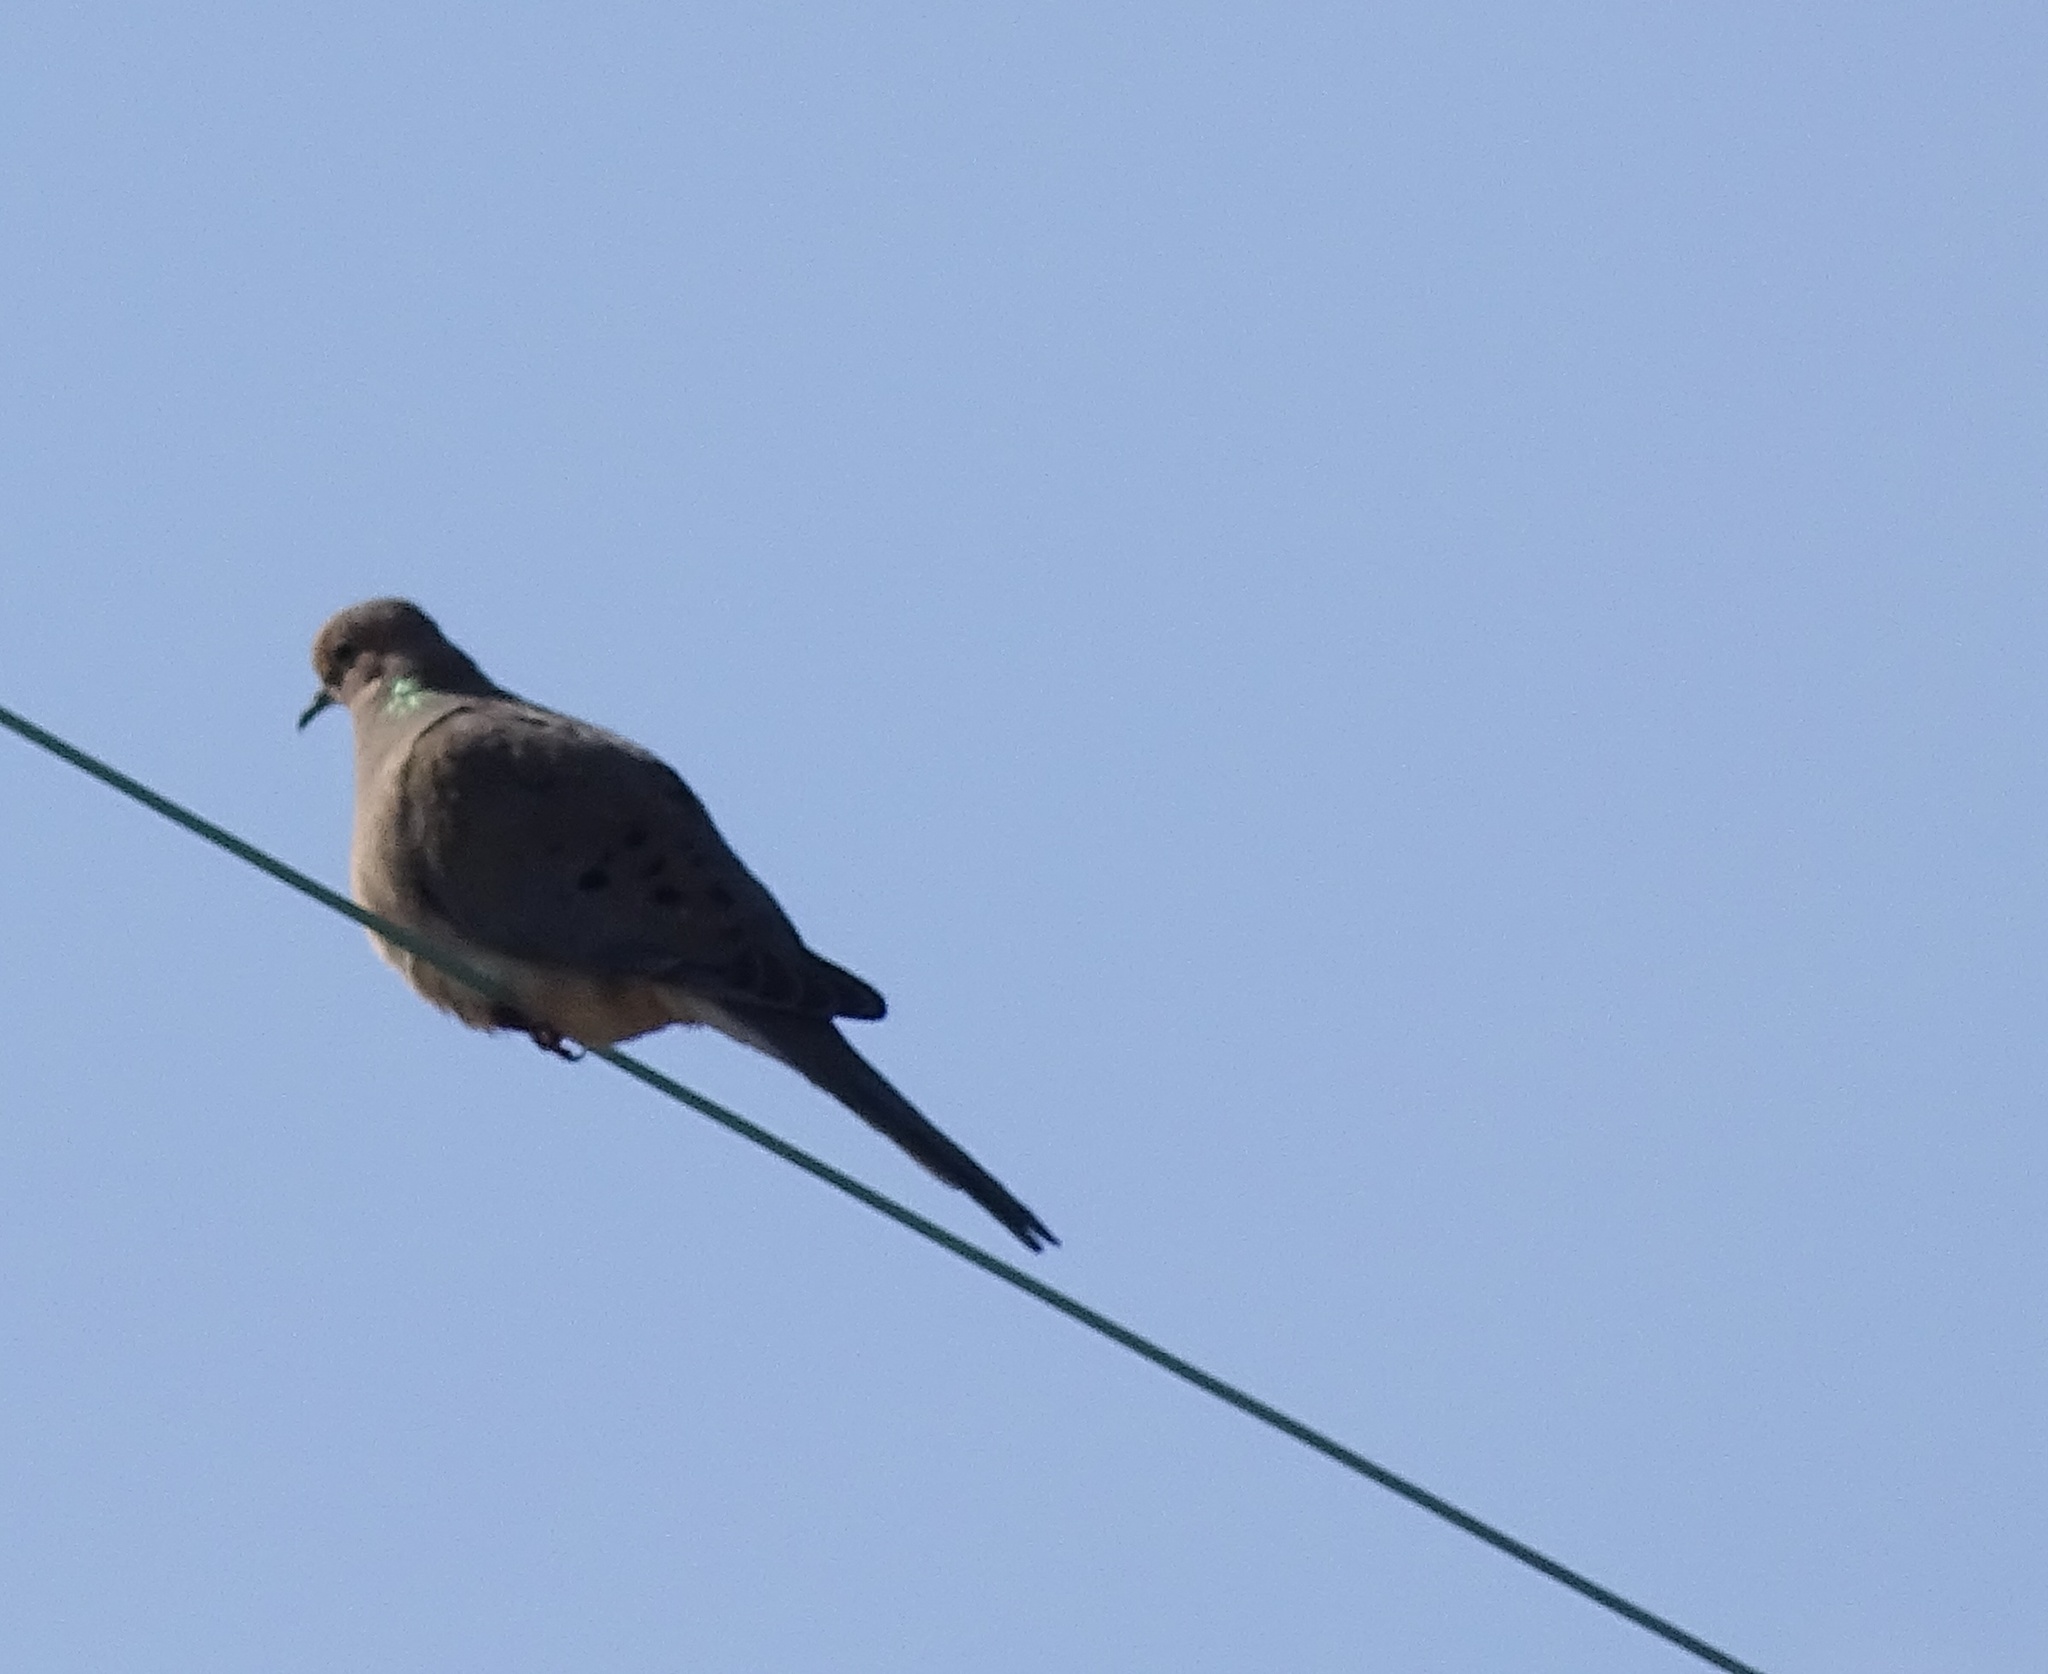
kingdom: Animalia
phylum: Chordata
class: Aves
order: Columbiformes
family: Columbidae
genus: Zenaida
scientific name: Zenaida macroura
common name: Mourning dove
